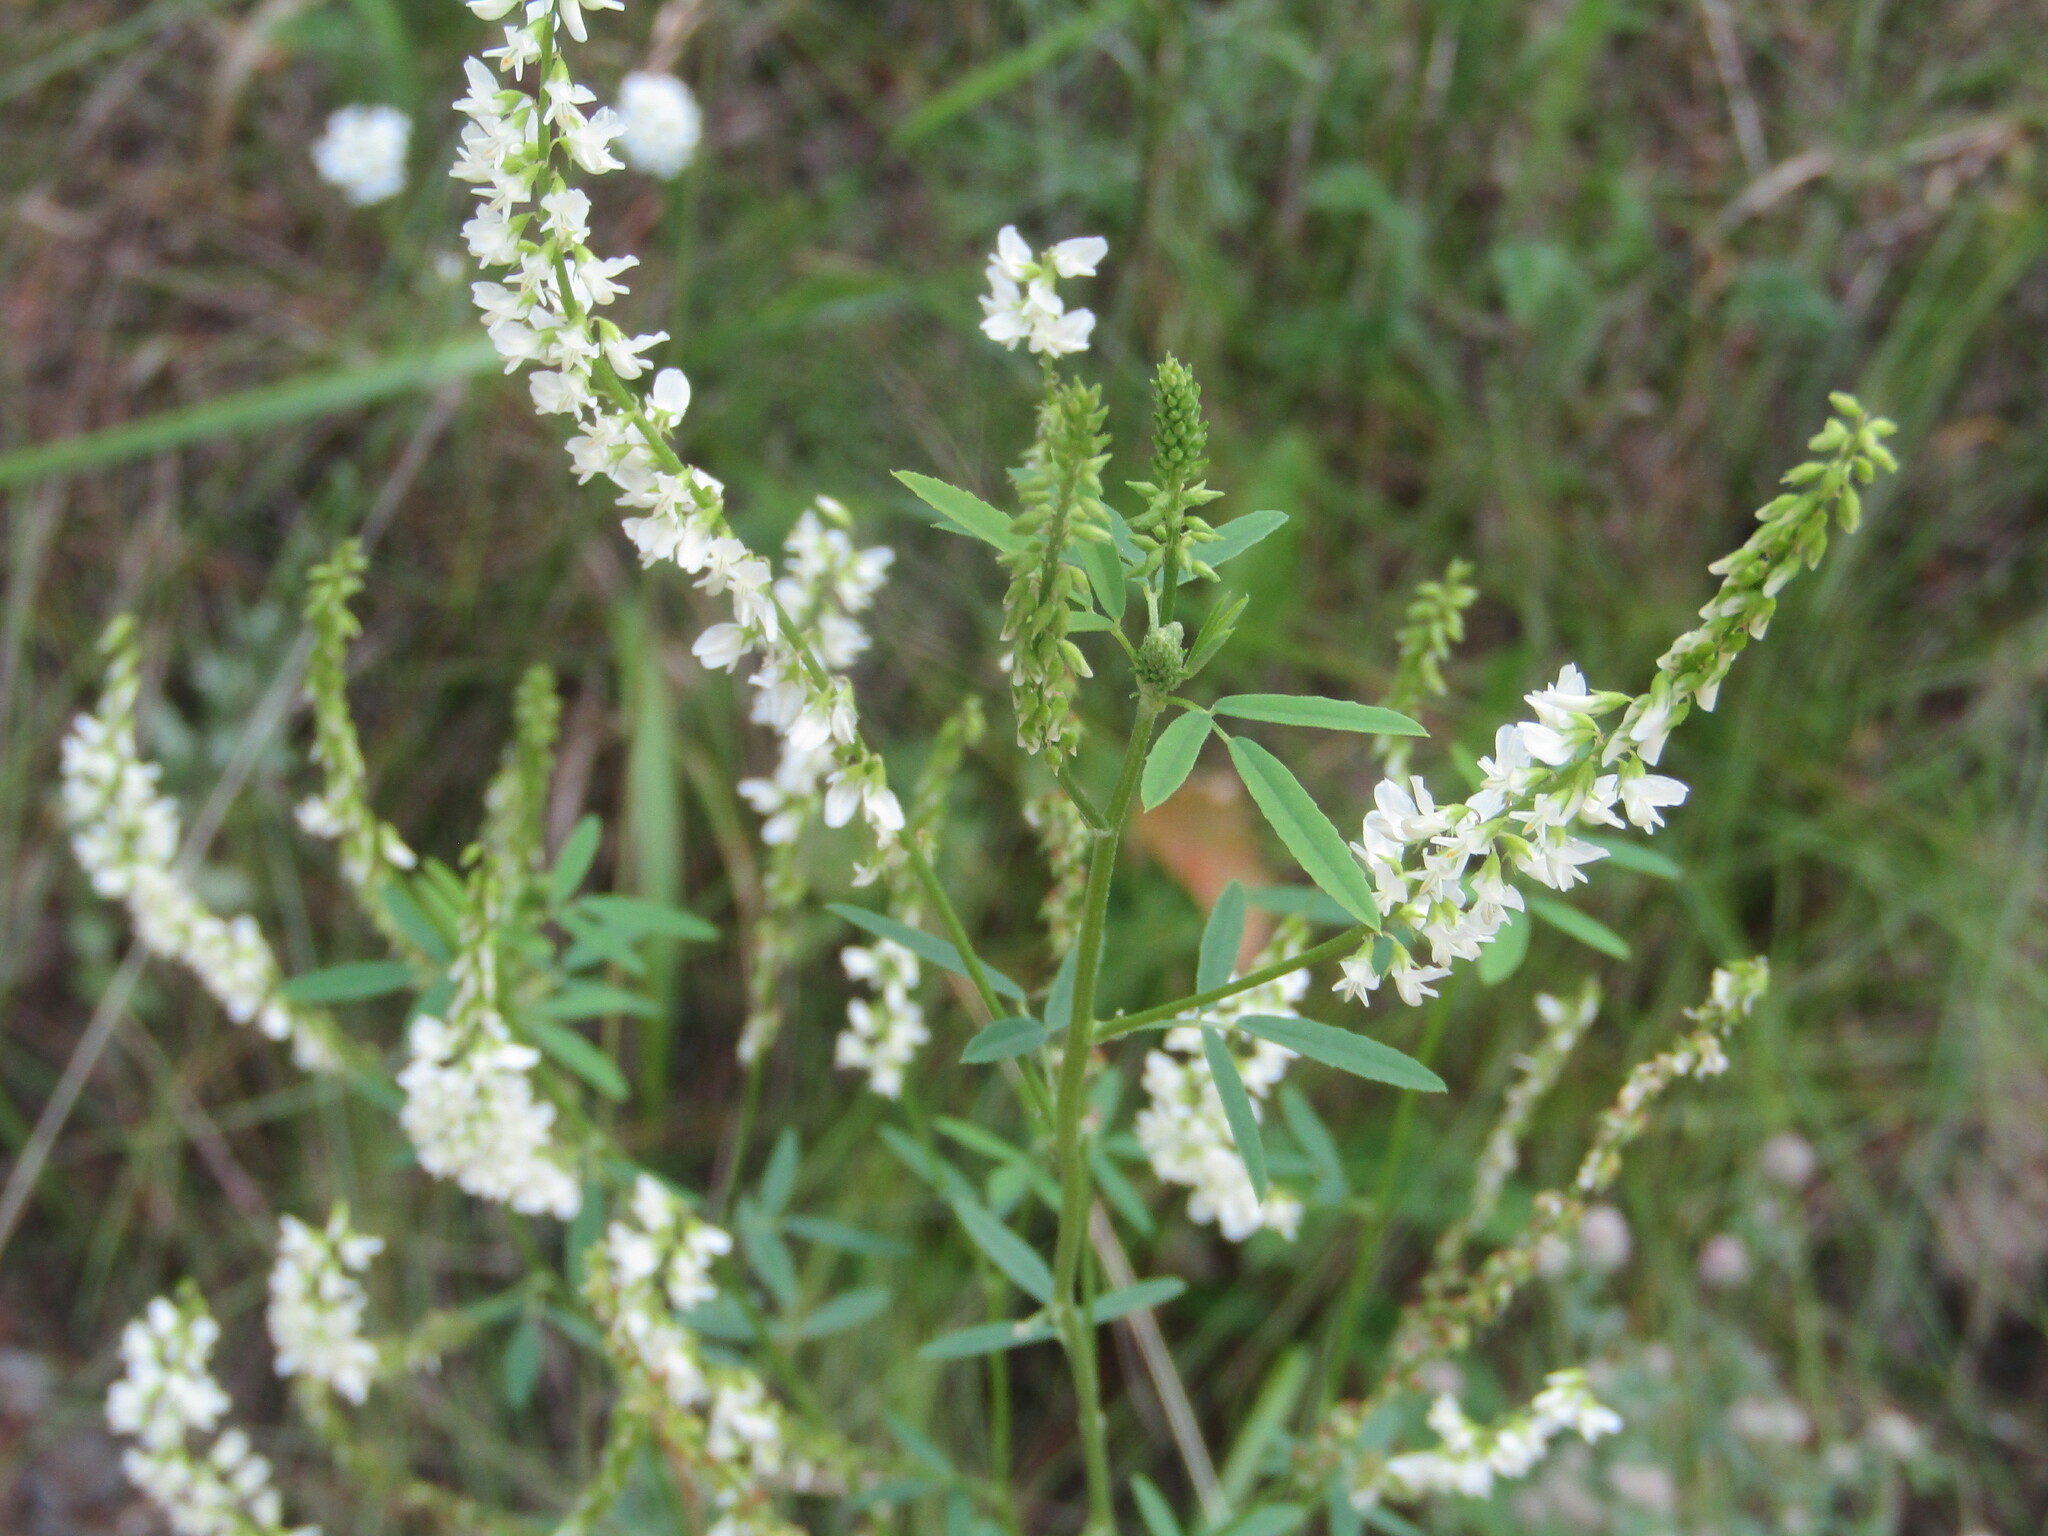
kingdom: Plantae
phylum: Tracheophyta
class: Magnoliopsida
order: Fabales
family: Fabaceae
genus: Melilotus
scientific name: Melilotus albus
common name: White melilot
